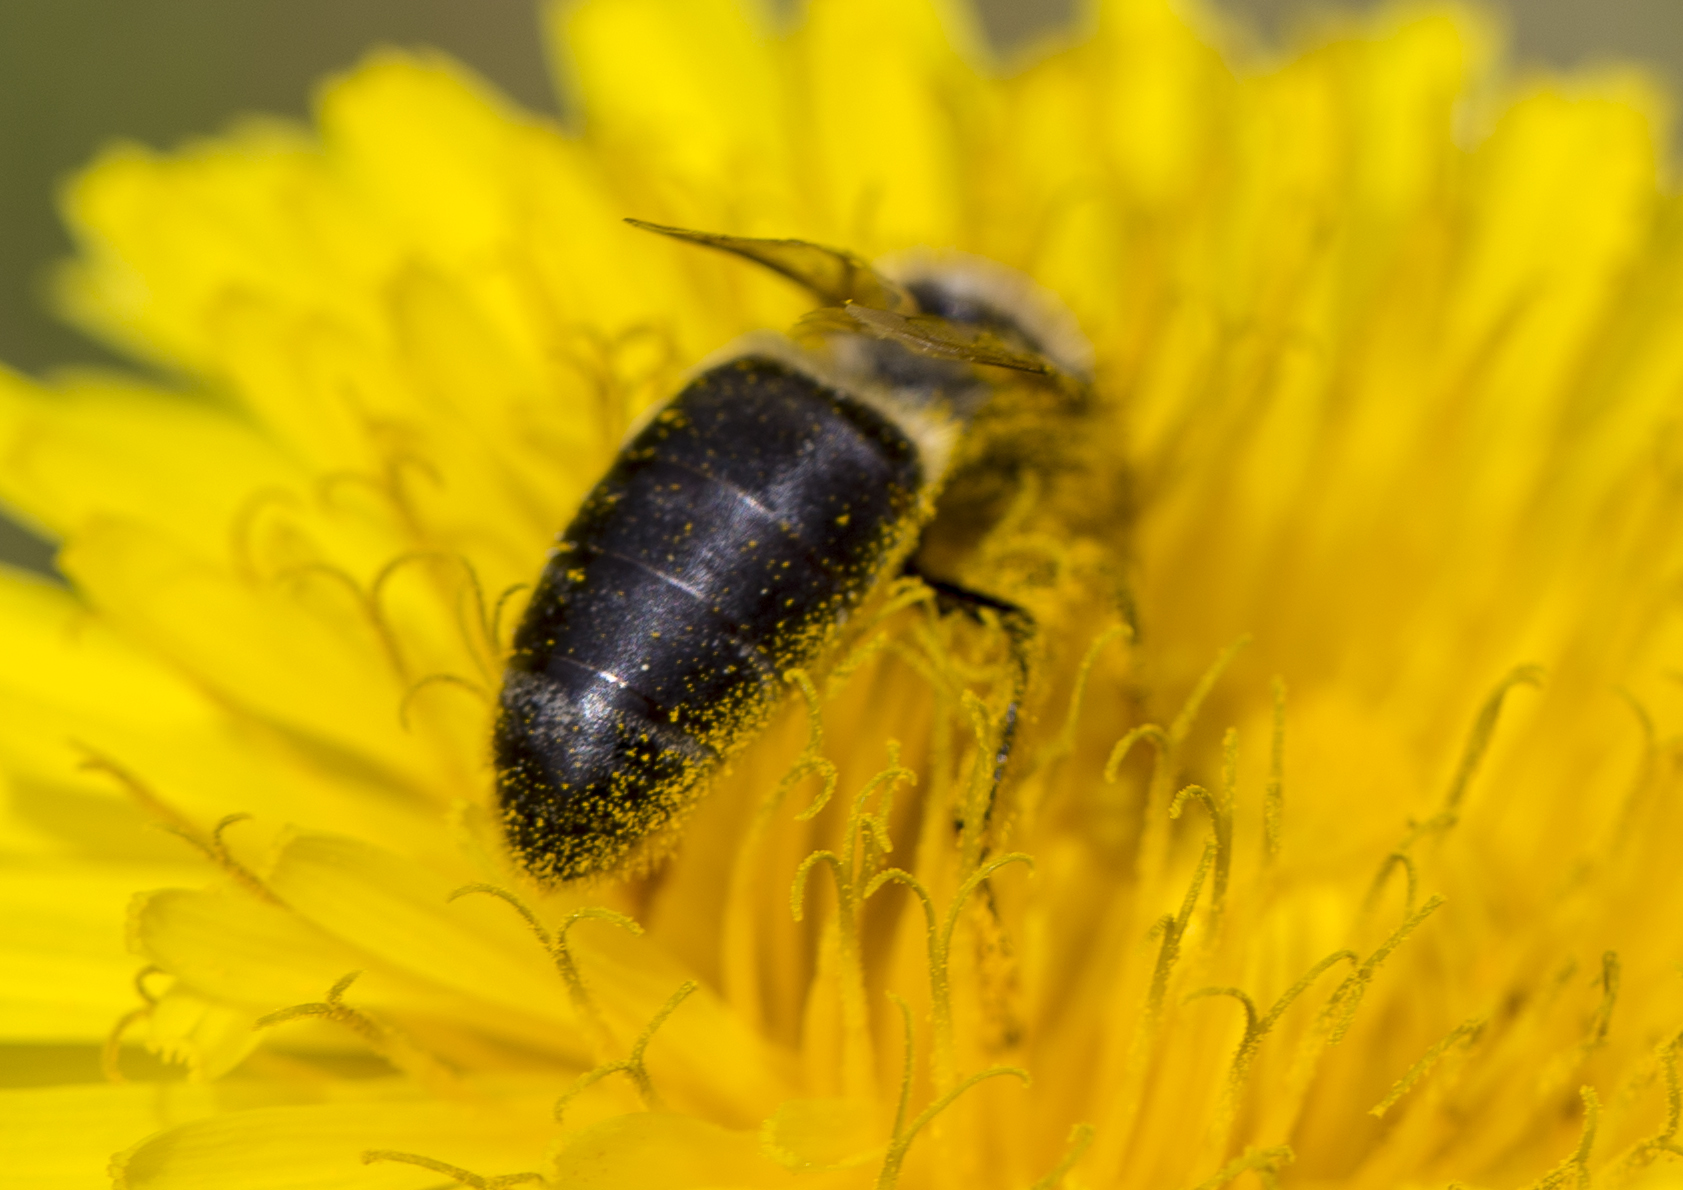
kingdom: Animalia
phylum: Arthropoda
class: Insecta
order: Hymenoptera
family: Apidae
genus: Apis
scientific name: Apis mellifera
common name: Honey bee
